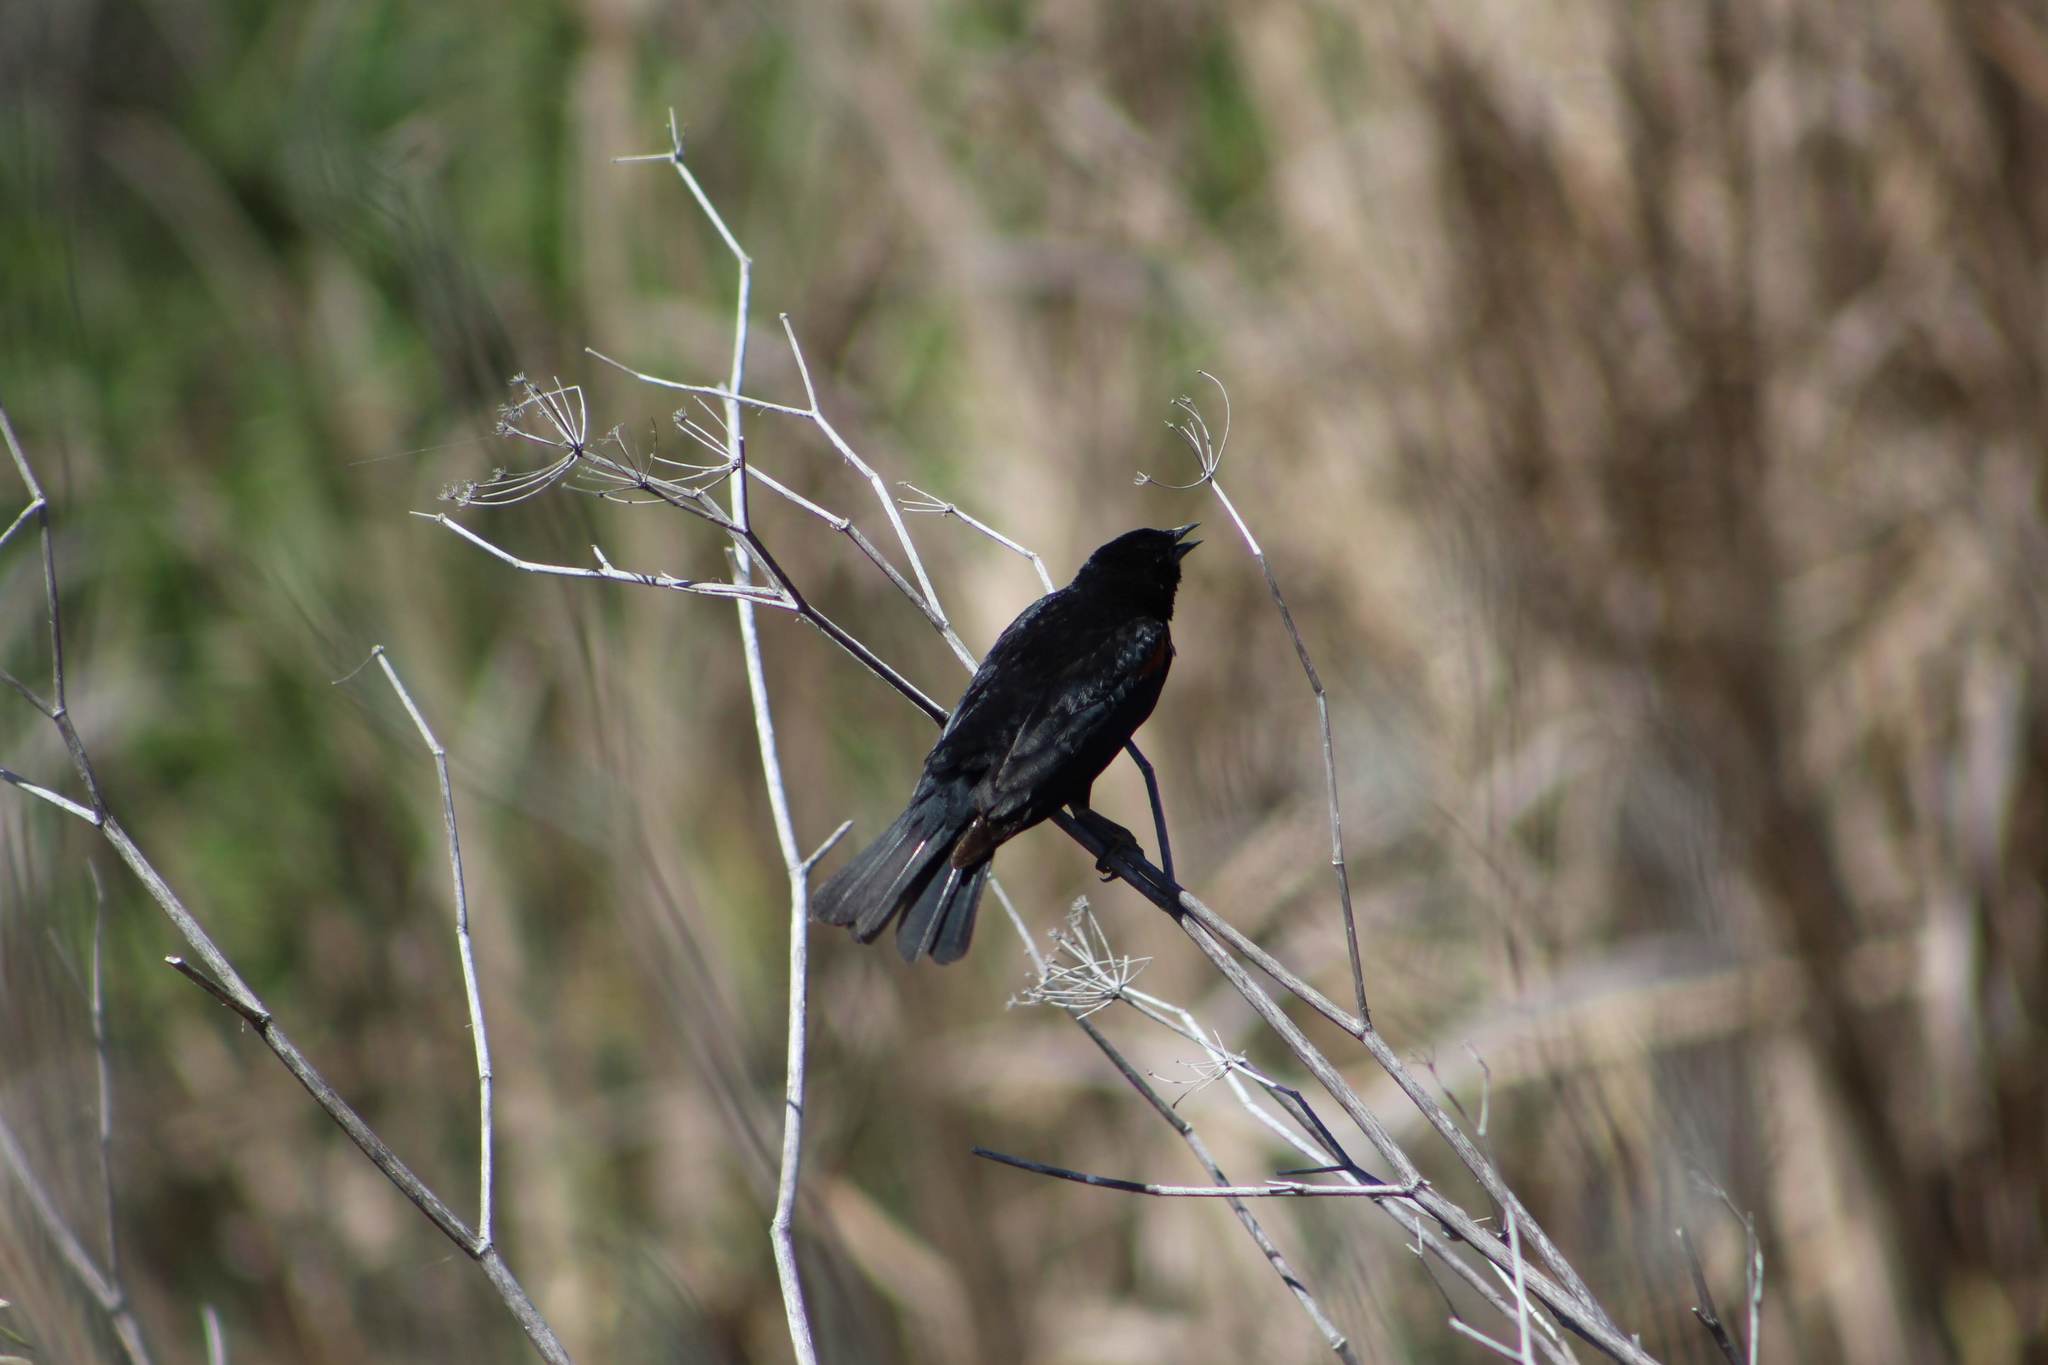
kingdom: Animalia
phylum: Chordata
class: Aves
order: Passeriformes
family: Icteridae
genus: Agelaius
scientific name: Agelaius phoeniceus
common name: Red-winged blackbird
